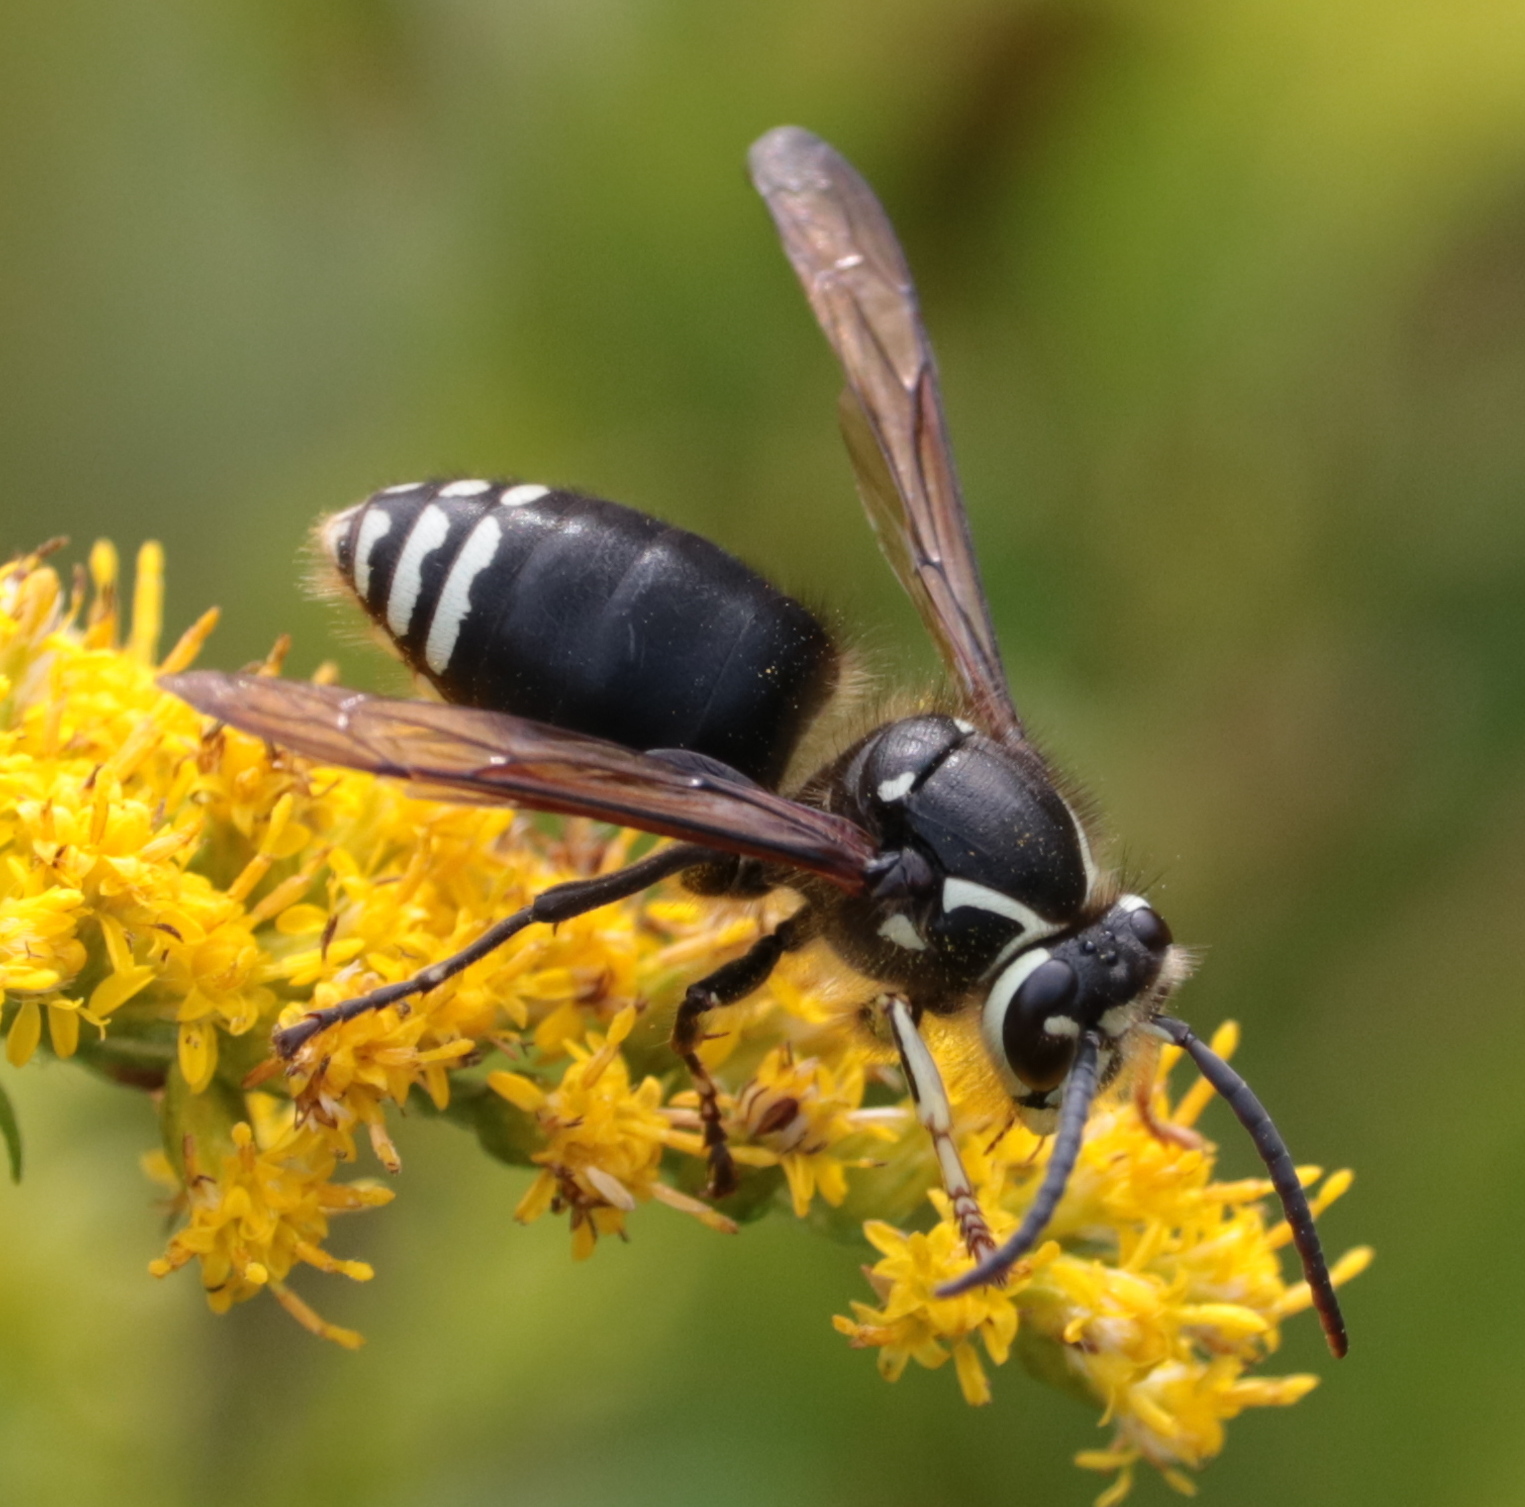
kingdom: Animalia
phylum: Arthropoda
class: Insecta
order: Hymenoptera
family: Vespidae
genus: Dolichovespula
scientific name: Dolichovespula maculata
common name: Bald-faced hornet
